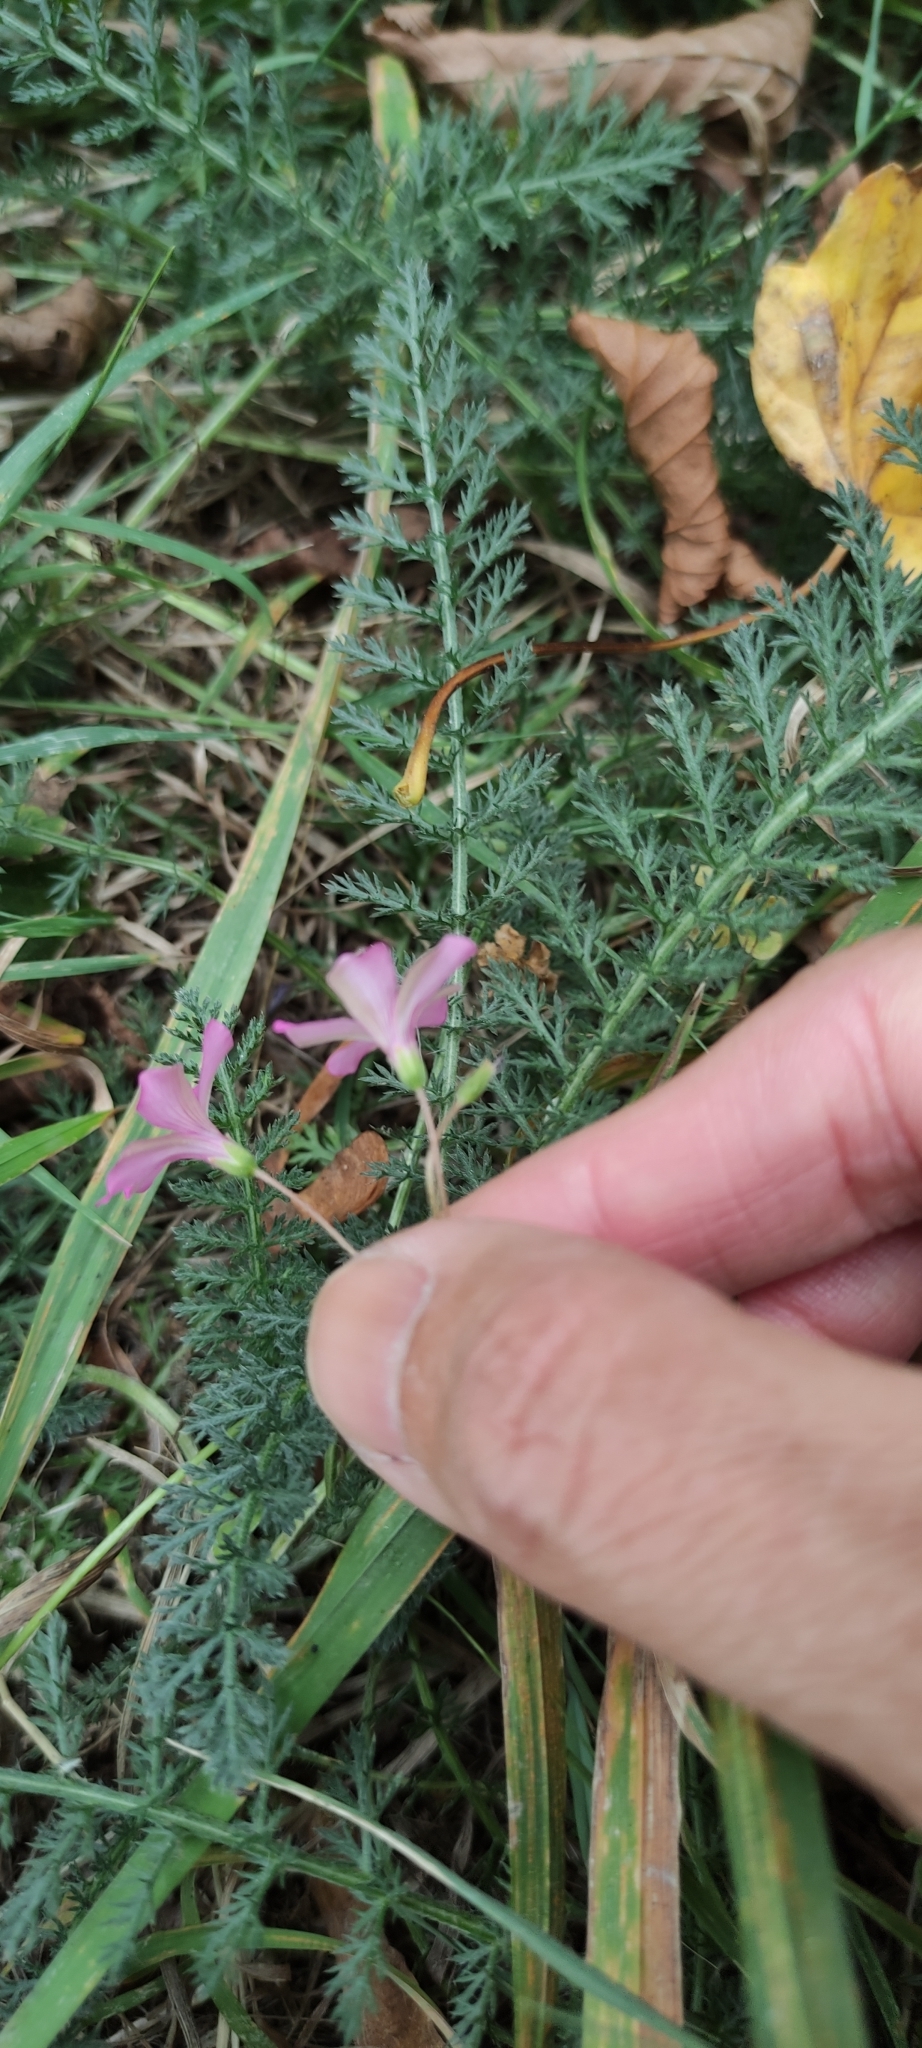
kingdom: Plantae
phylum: Tracheophyta
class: Magnoliopsida
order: Oxalidales
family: Oxalidaceae
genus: Oxalis
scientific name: Oxalis articulata
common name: Pink-sorrel
